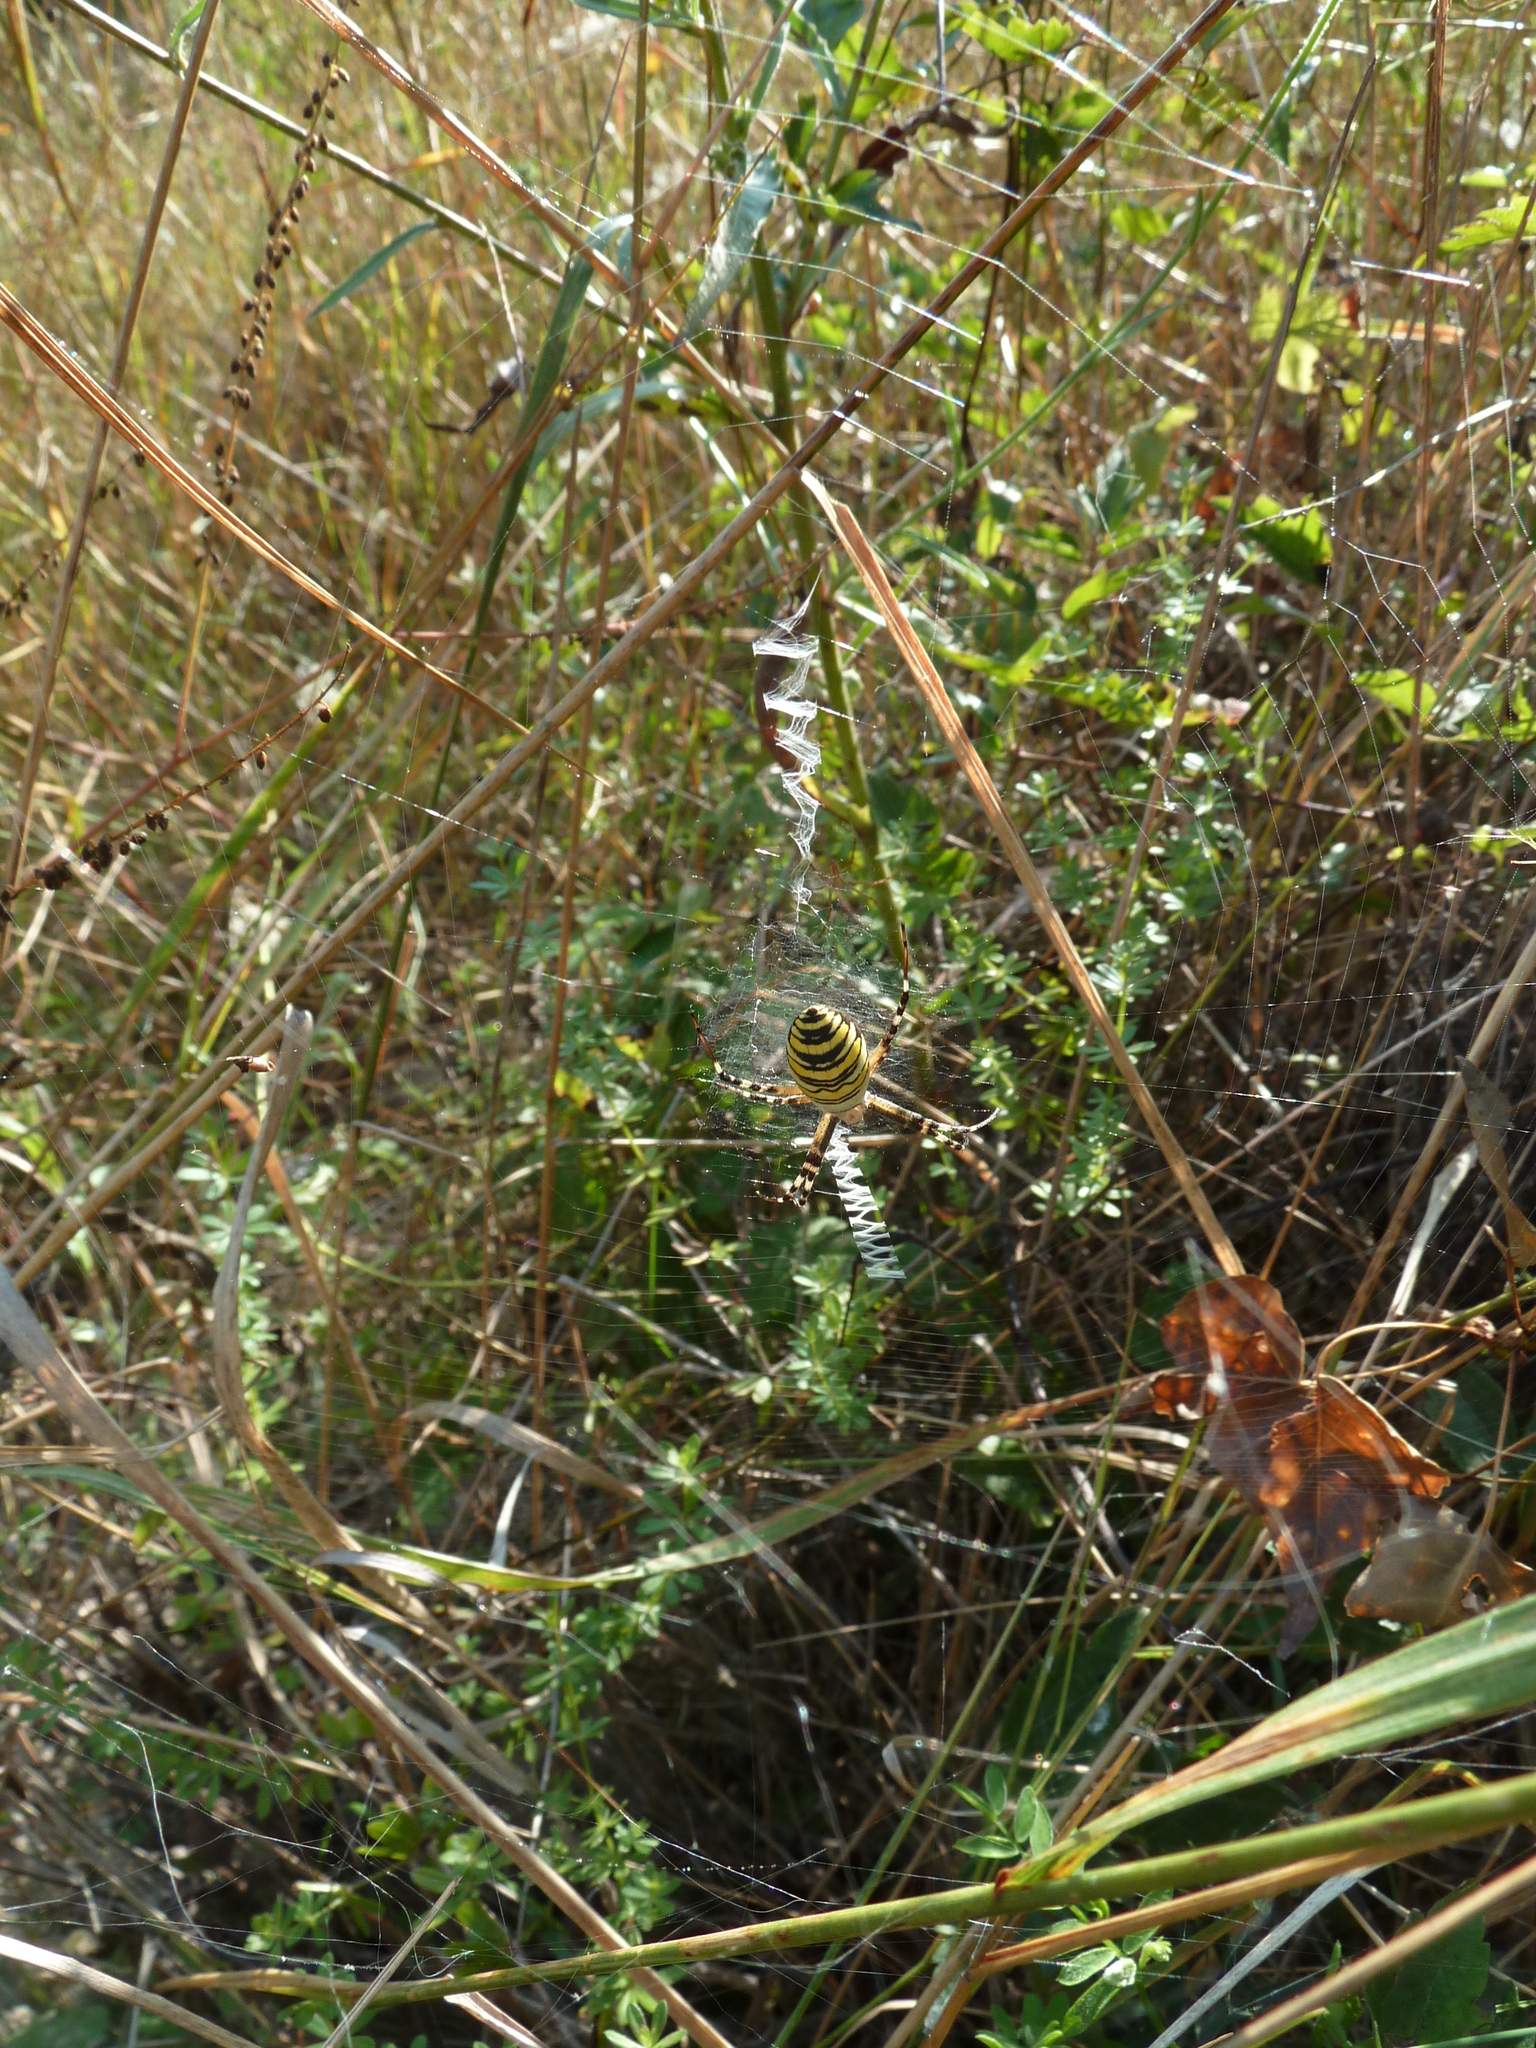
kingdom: Animalia
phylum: Arthropoda
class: Arachnida
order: Araneae
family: Araneidae
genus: Argiope
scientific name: Argiope bruennichi
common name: Wasp spider
